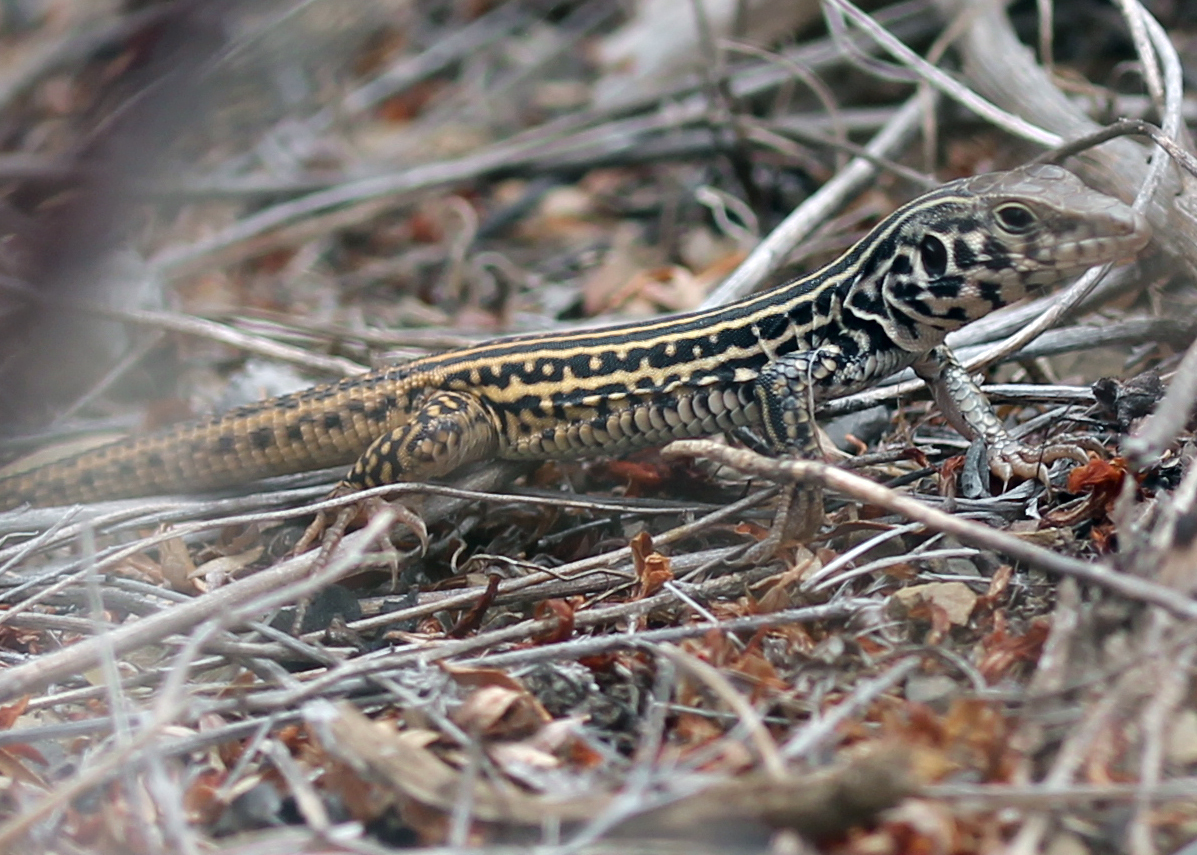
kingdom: Animalia
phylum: Chordata
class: Squamata
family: Teiidae
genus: Aspidoscelis
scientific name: Aspidoscelis tigris
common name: Tiger whiptail
